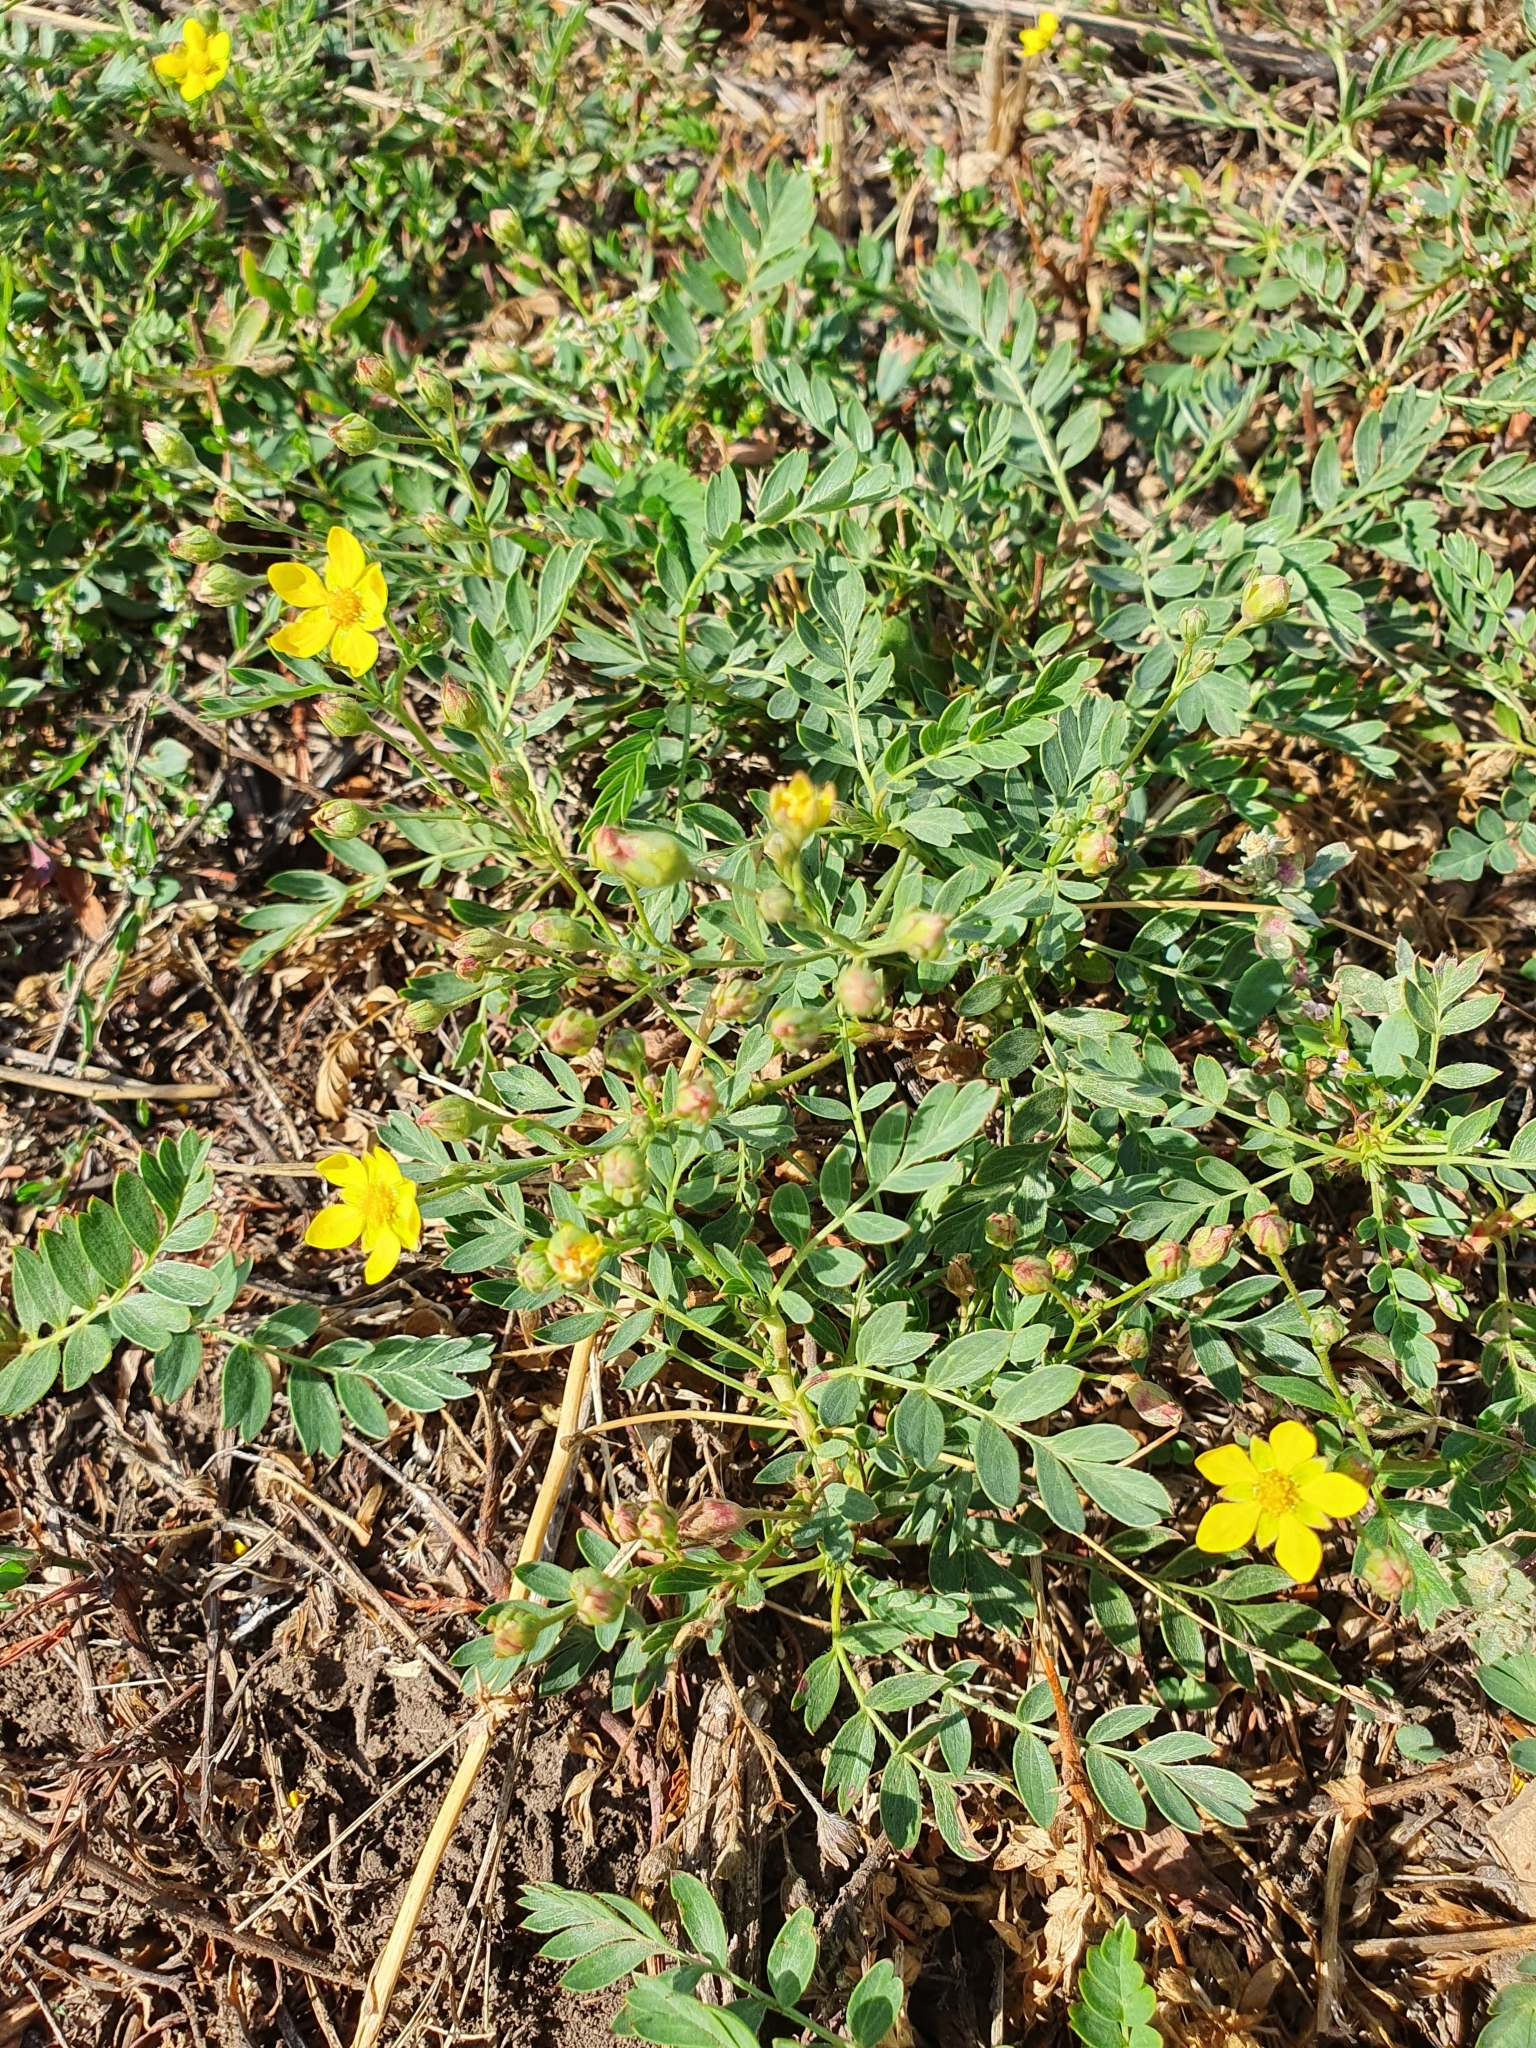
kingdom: Plantae
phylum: Tracheophyta
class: Magnoliopsida
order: Rosales
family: Rosaceae
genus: Sibbaldianthe
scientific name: Sibbaldianthe bifurca
